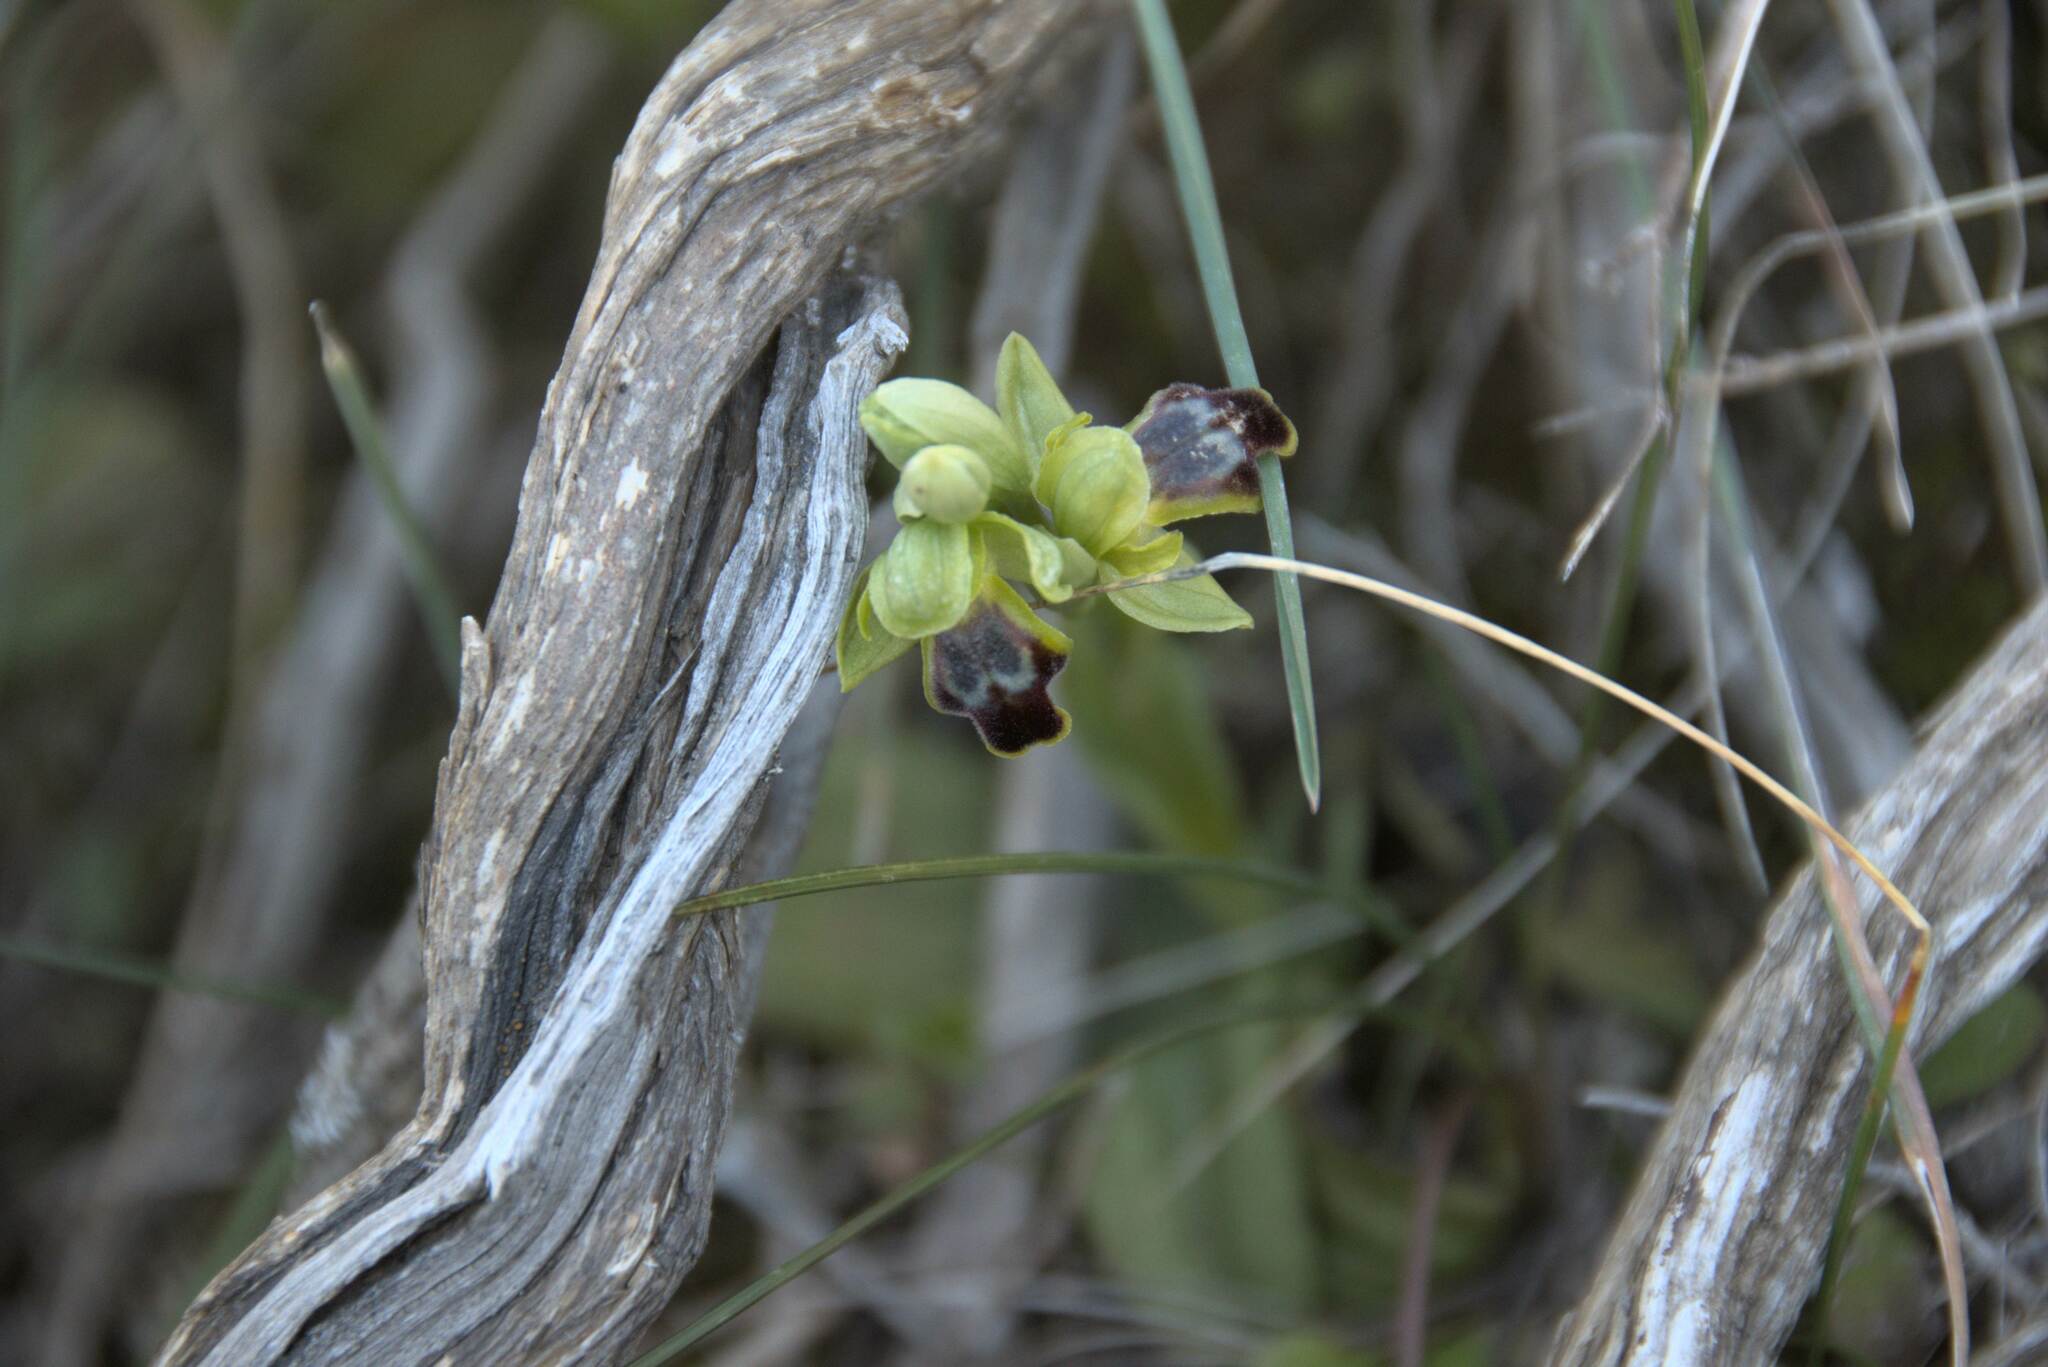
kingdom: Plantae
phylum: Tracheophyta
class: Liliopsida
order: Asparagales
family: Orchidaceae
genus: Ophrys
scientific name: Ophrys fusca
